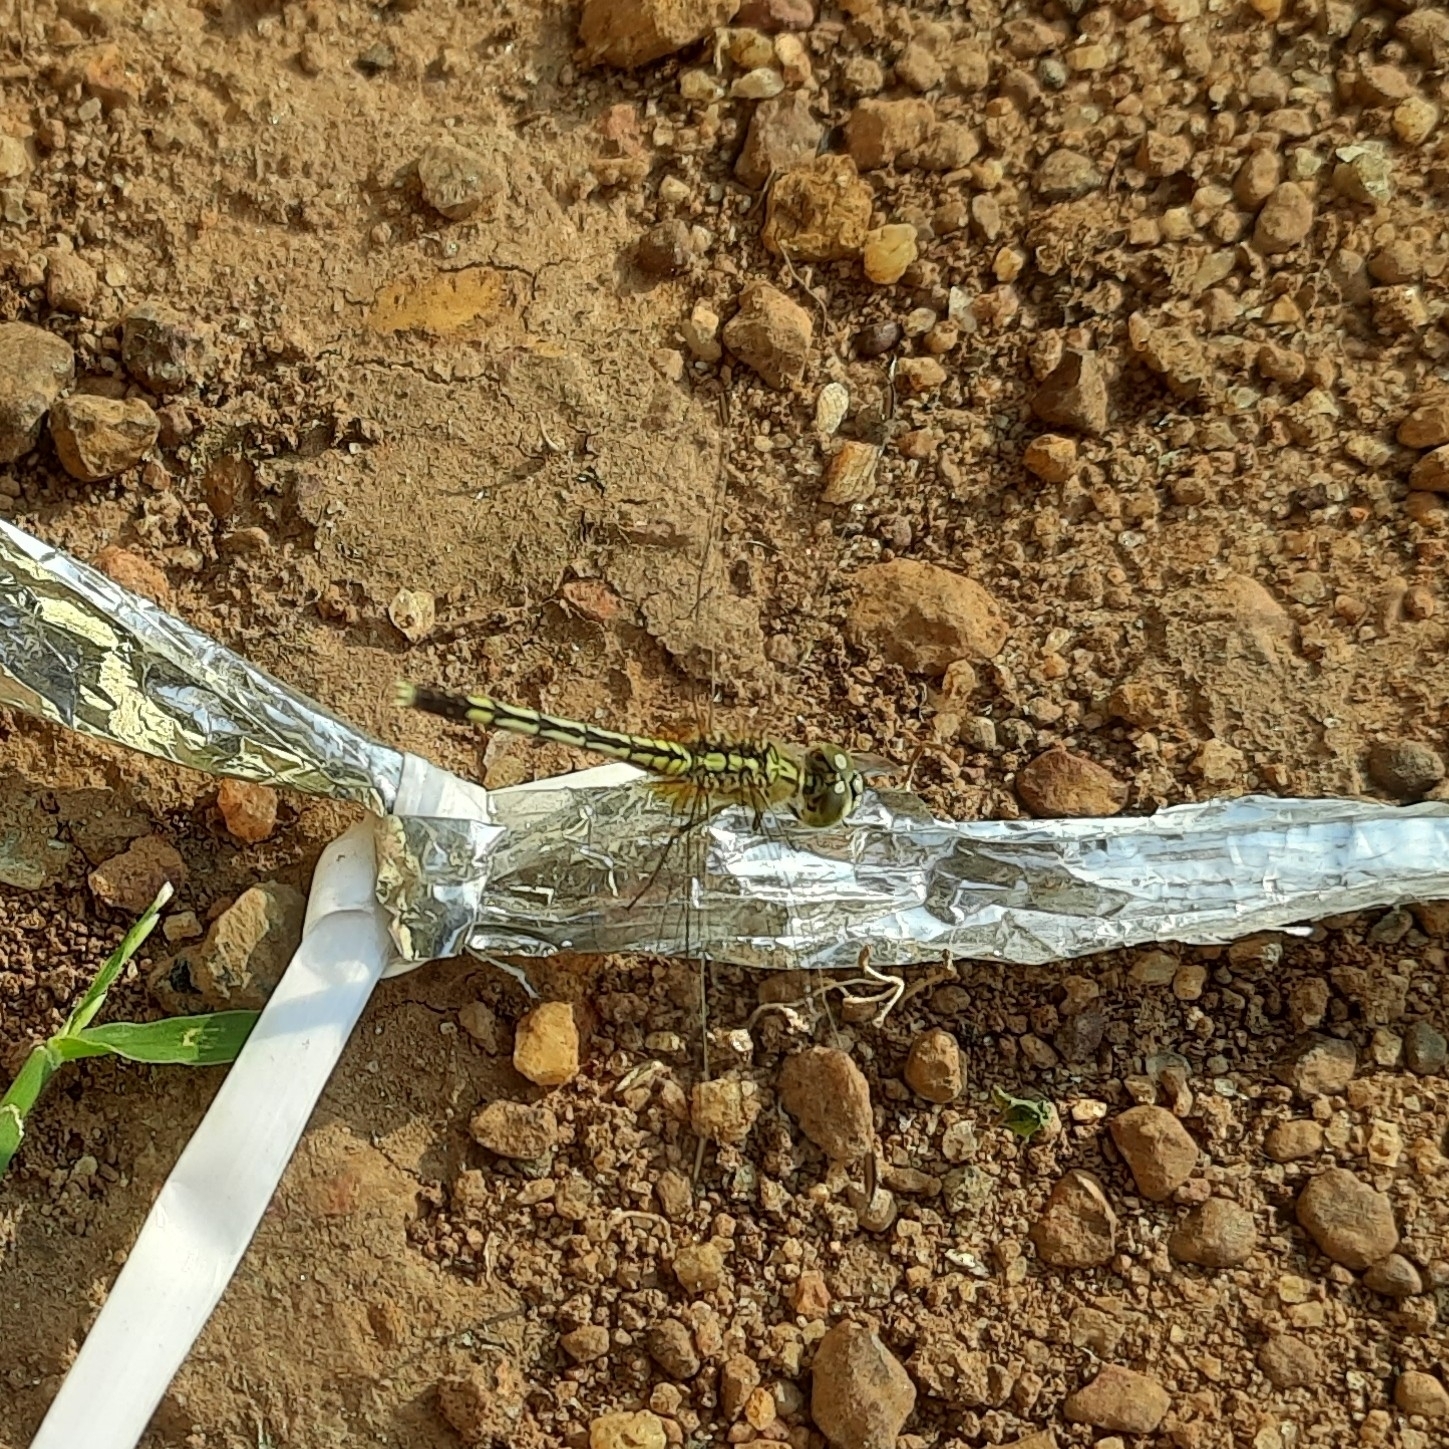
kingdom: Animalia
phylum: Arthropoda
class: Insecta
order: Odonata
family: Libellulidae
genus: Diplacodes
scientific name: Diplacodes trivialis
